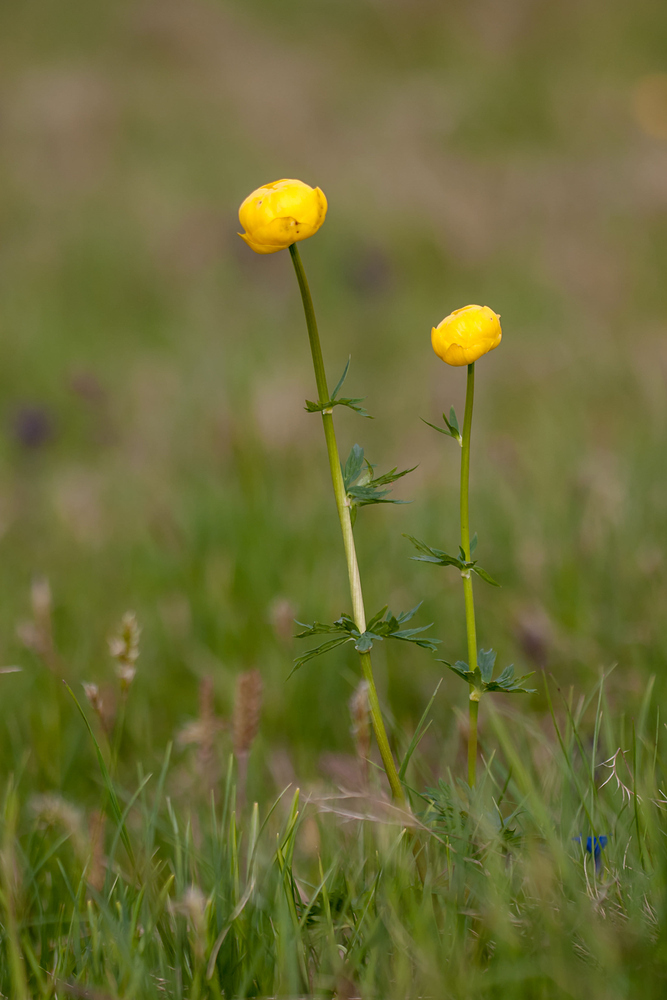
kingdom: Plantae
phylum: Tracheophyta
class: Magnoliopsida
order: Ranunculales
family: Ranunculaceae
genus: Trollius
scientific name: Trollius europaeus
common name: European globeflower
